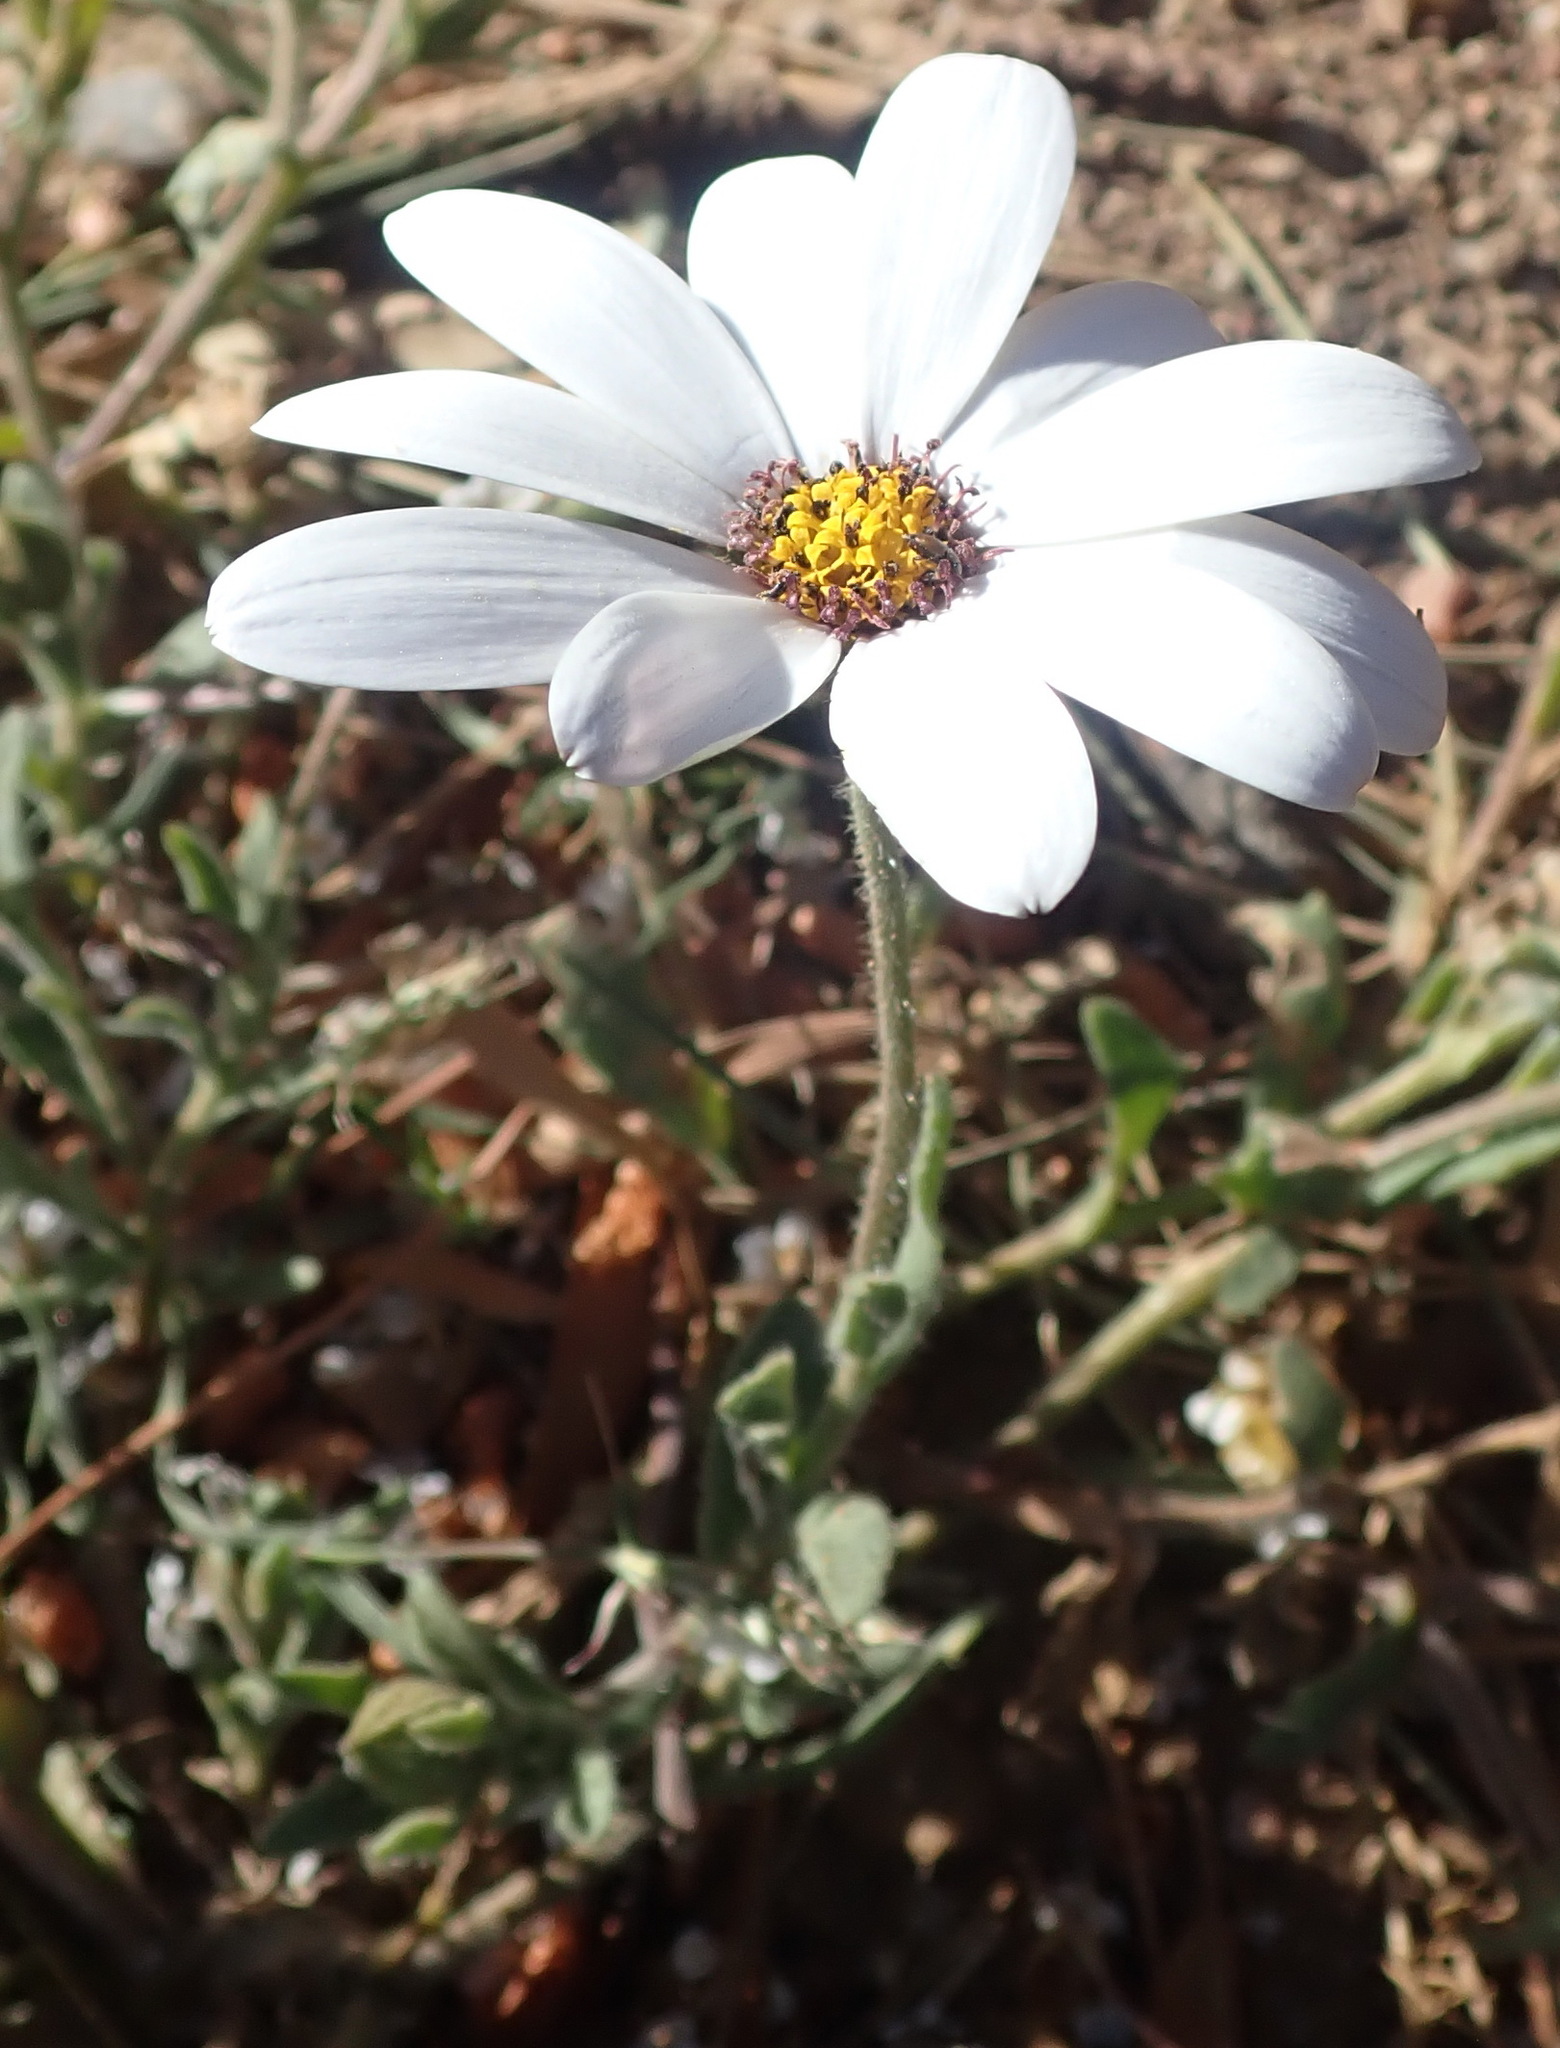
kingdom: Plantae
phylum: Tracheophyta
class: Magnoliopsida
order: Asterales
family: Asteraceae
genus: Dimorphotheca
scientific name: Dimorphotheca pluvialis
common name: Weather prophet
